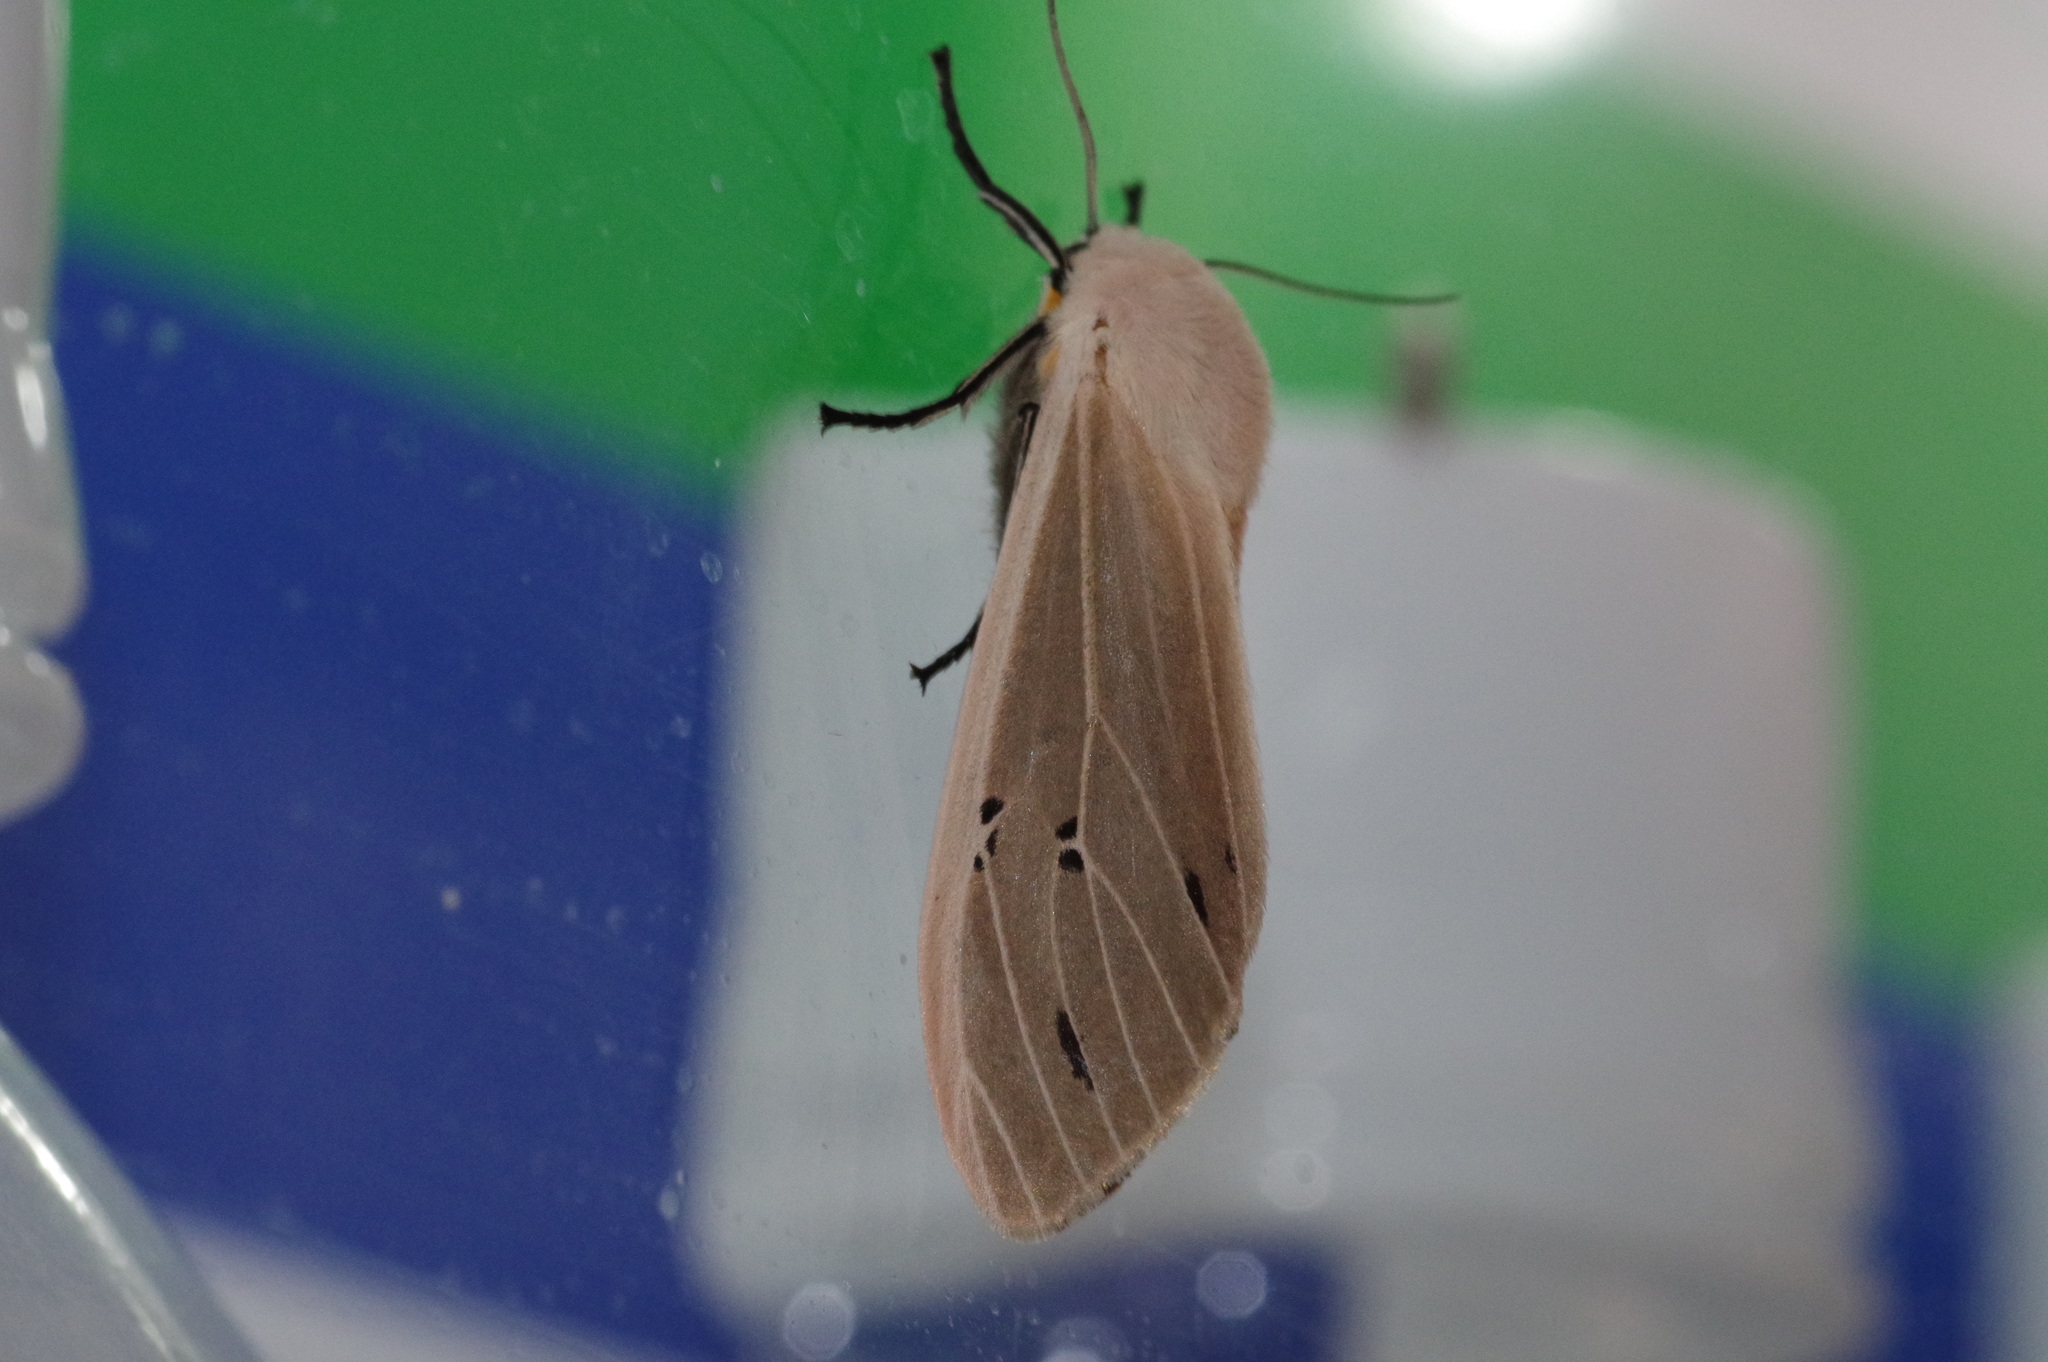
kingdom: Animalia
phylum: Arthropoda
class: Insecta
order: Lepidoptera
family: Erebidae
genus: Creatonotos
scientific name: Creatonotos transiens
